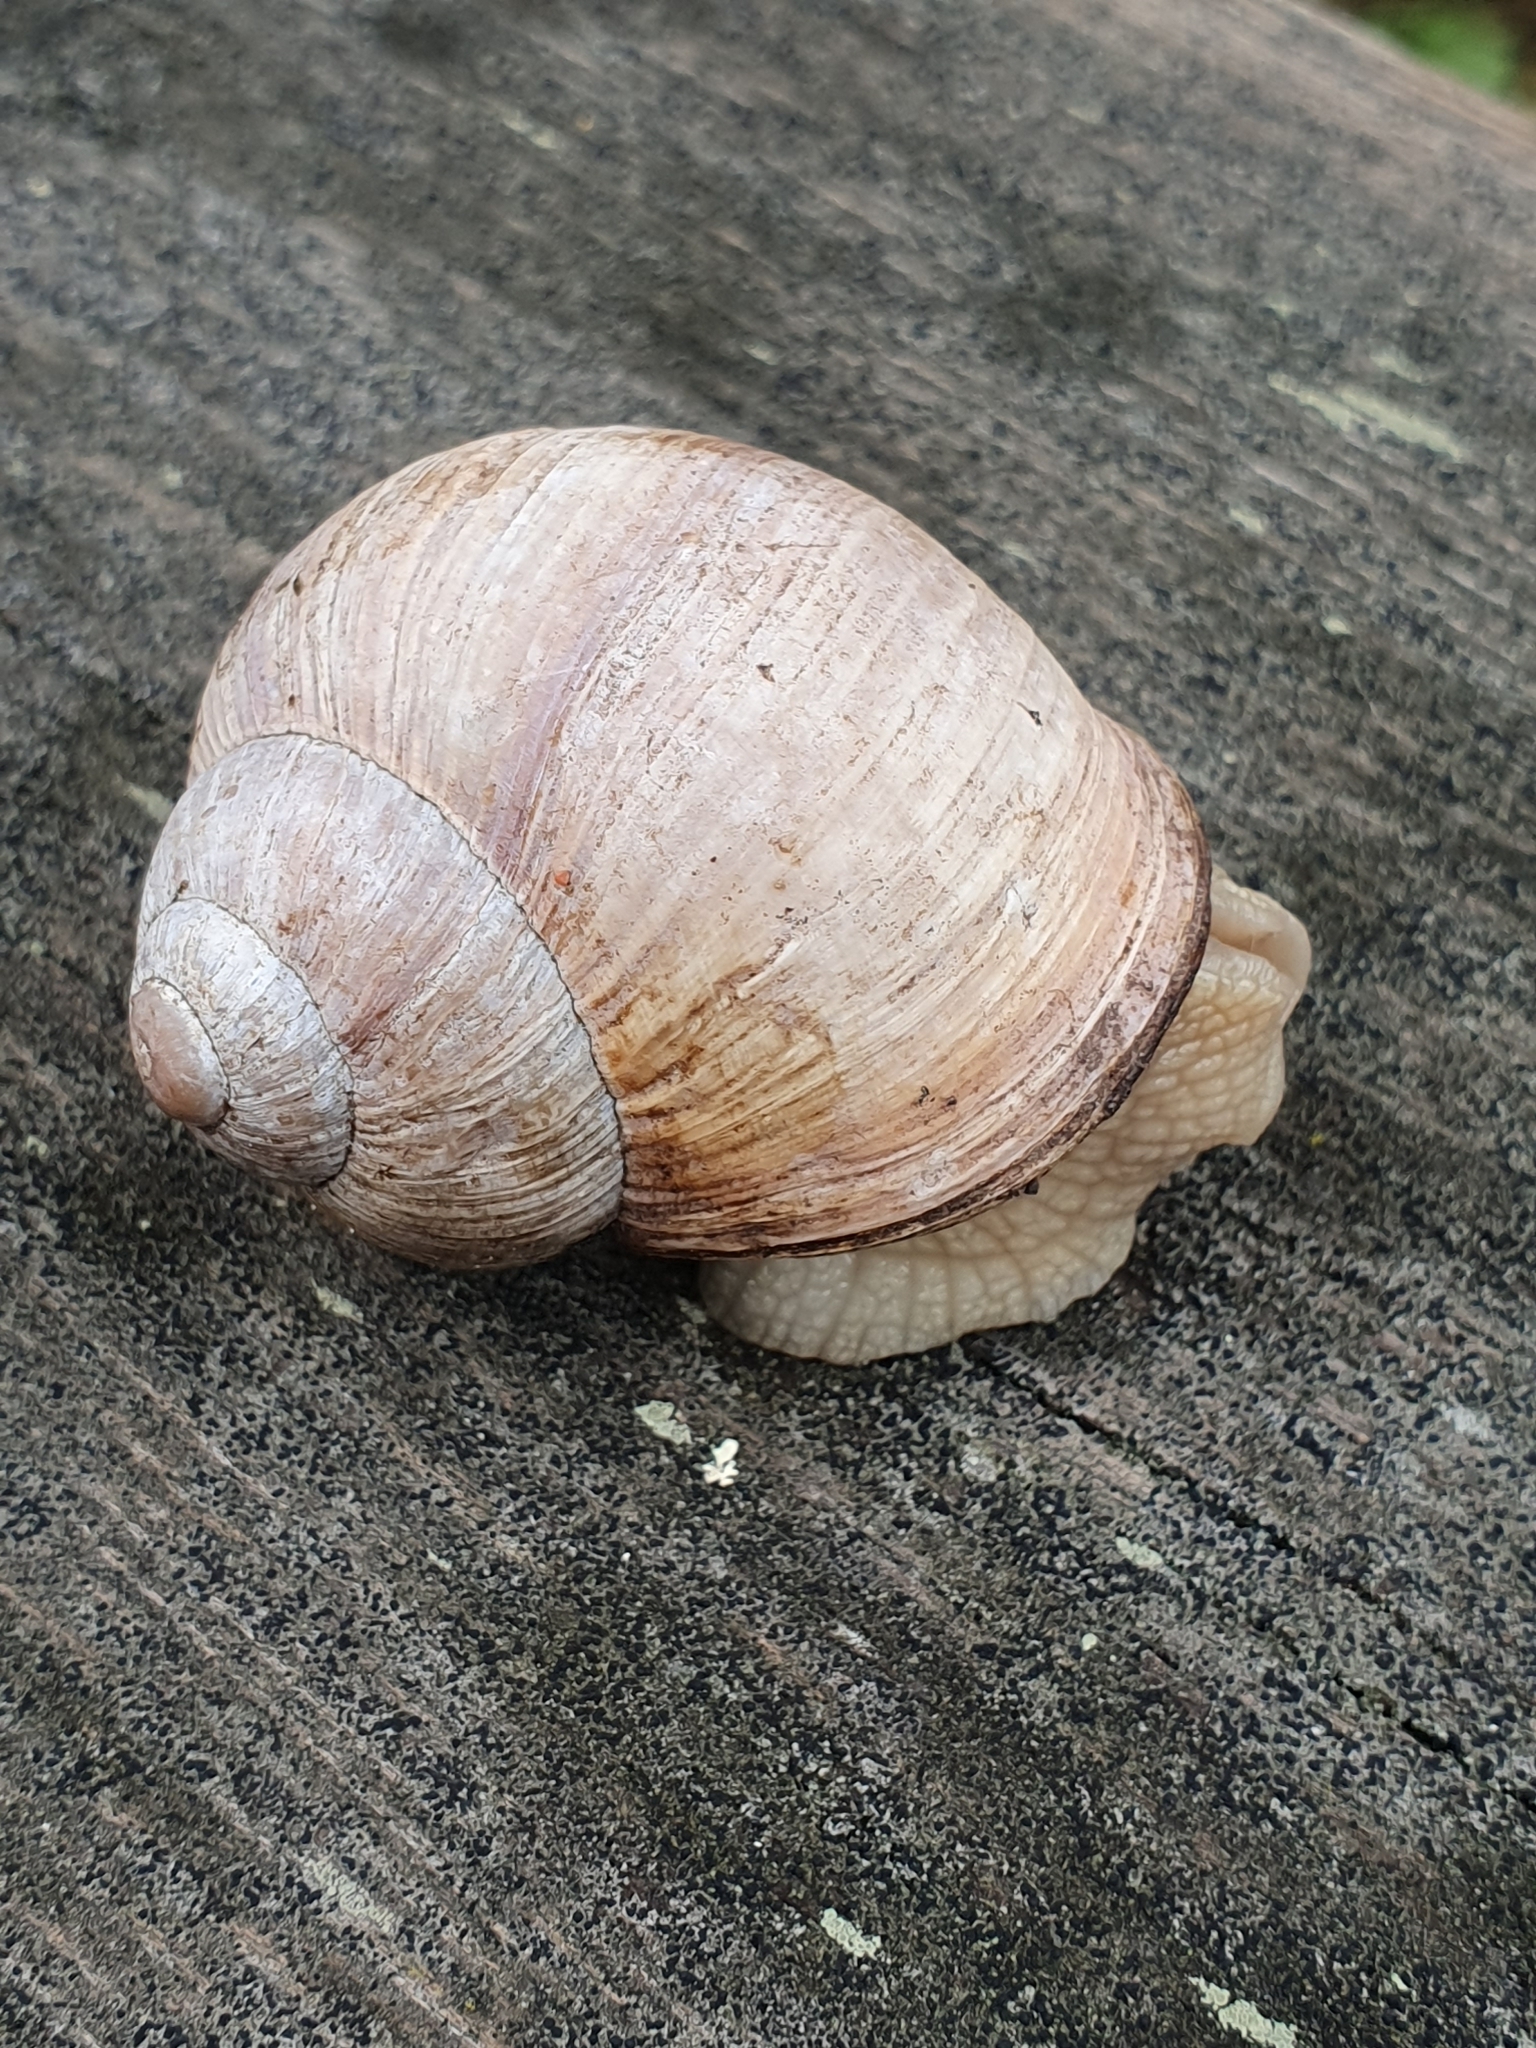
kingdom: Animalia
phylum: Mollusca
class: Gastropoda
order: Stylommatophora
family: Helicidae
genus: Helix
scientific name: Helix pomatia
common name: Roman snail
